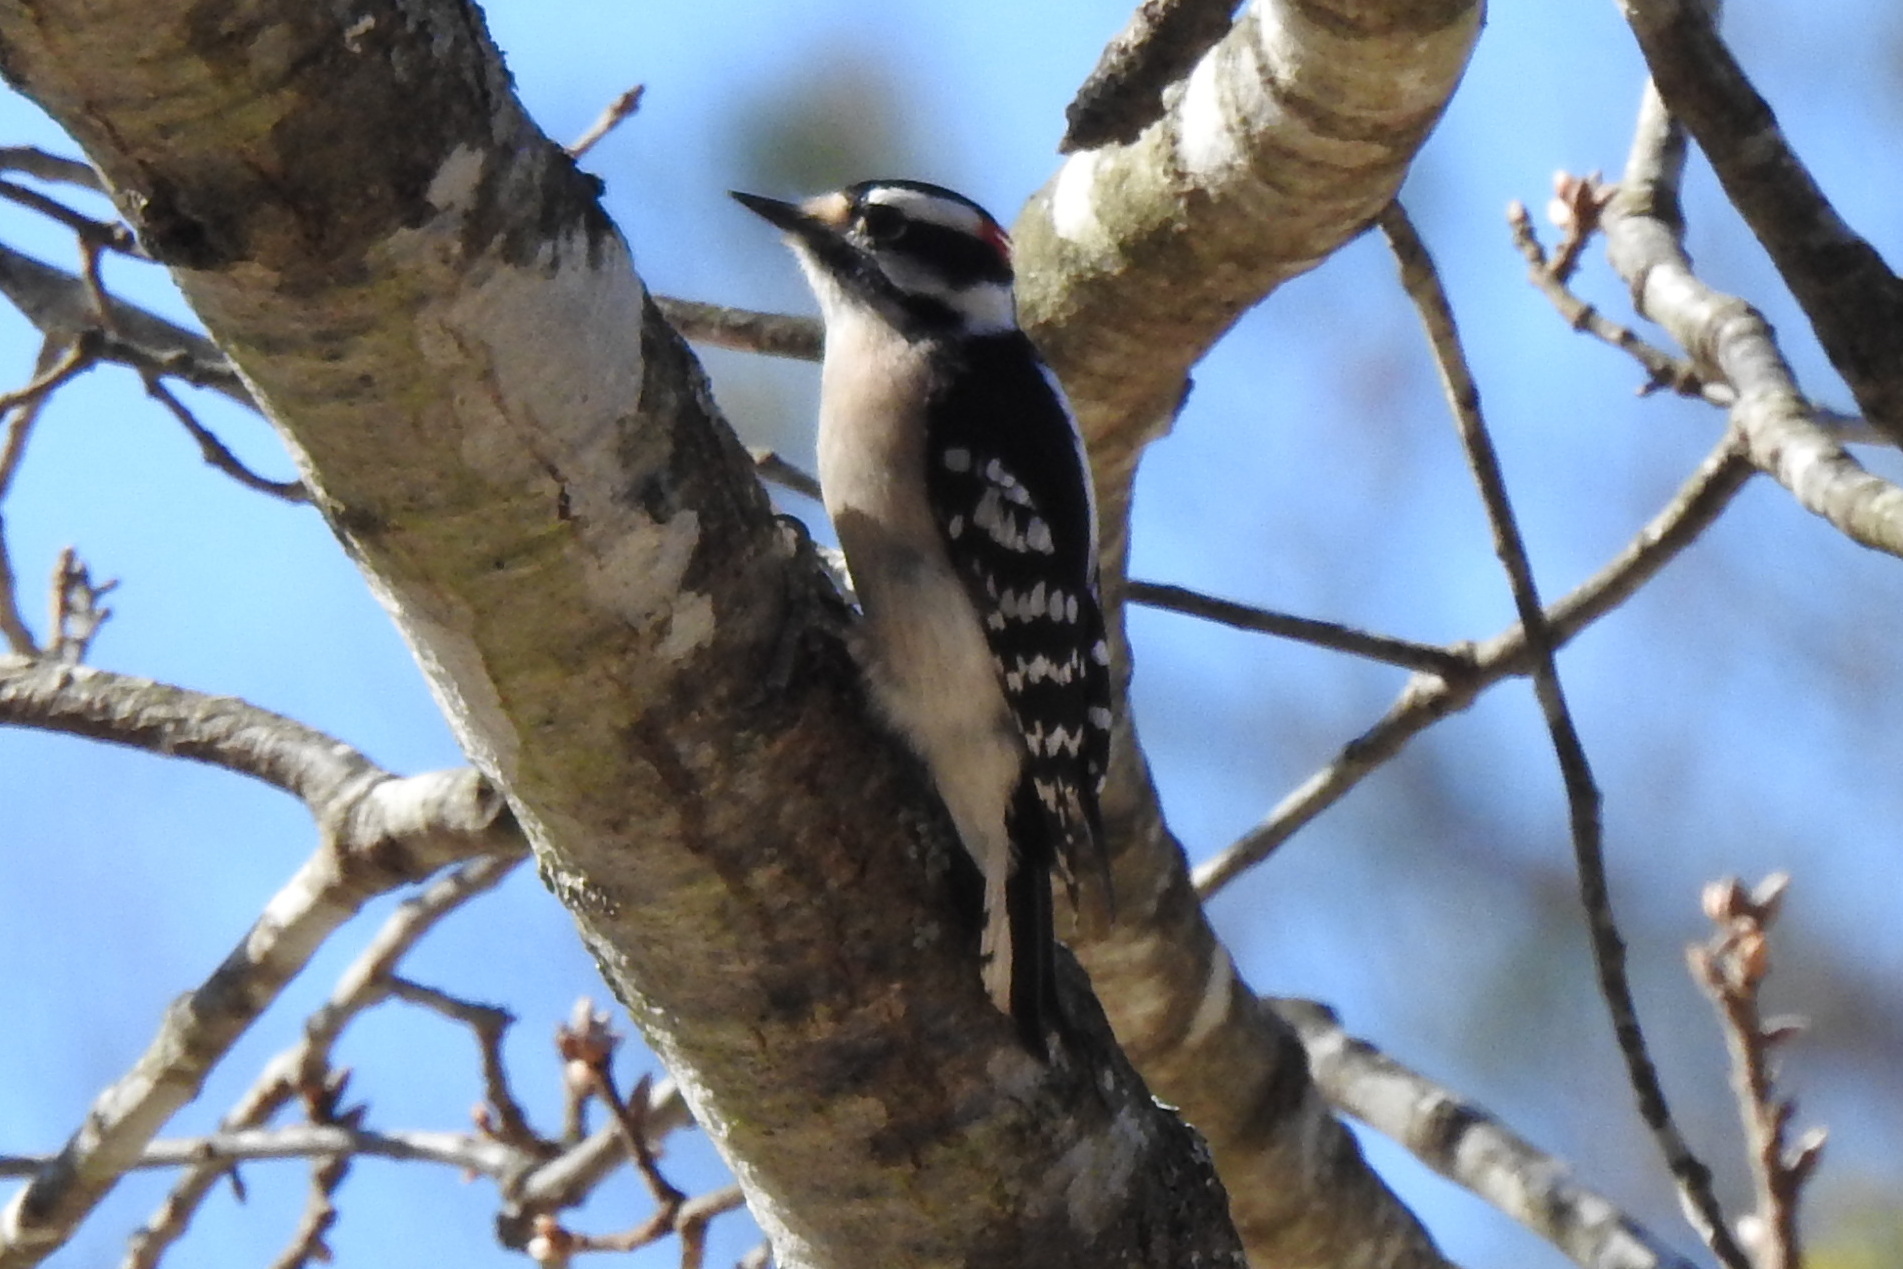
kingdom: Animalia
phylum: Chordata
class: Aves
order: Piciformes
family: Picidae
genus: Dryobates
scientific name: Dryobates pubescens
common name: Downy woodpecker
